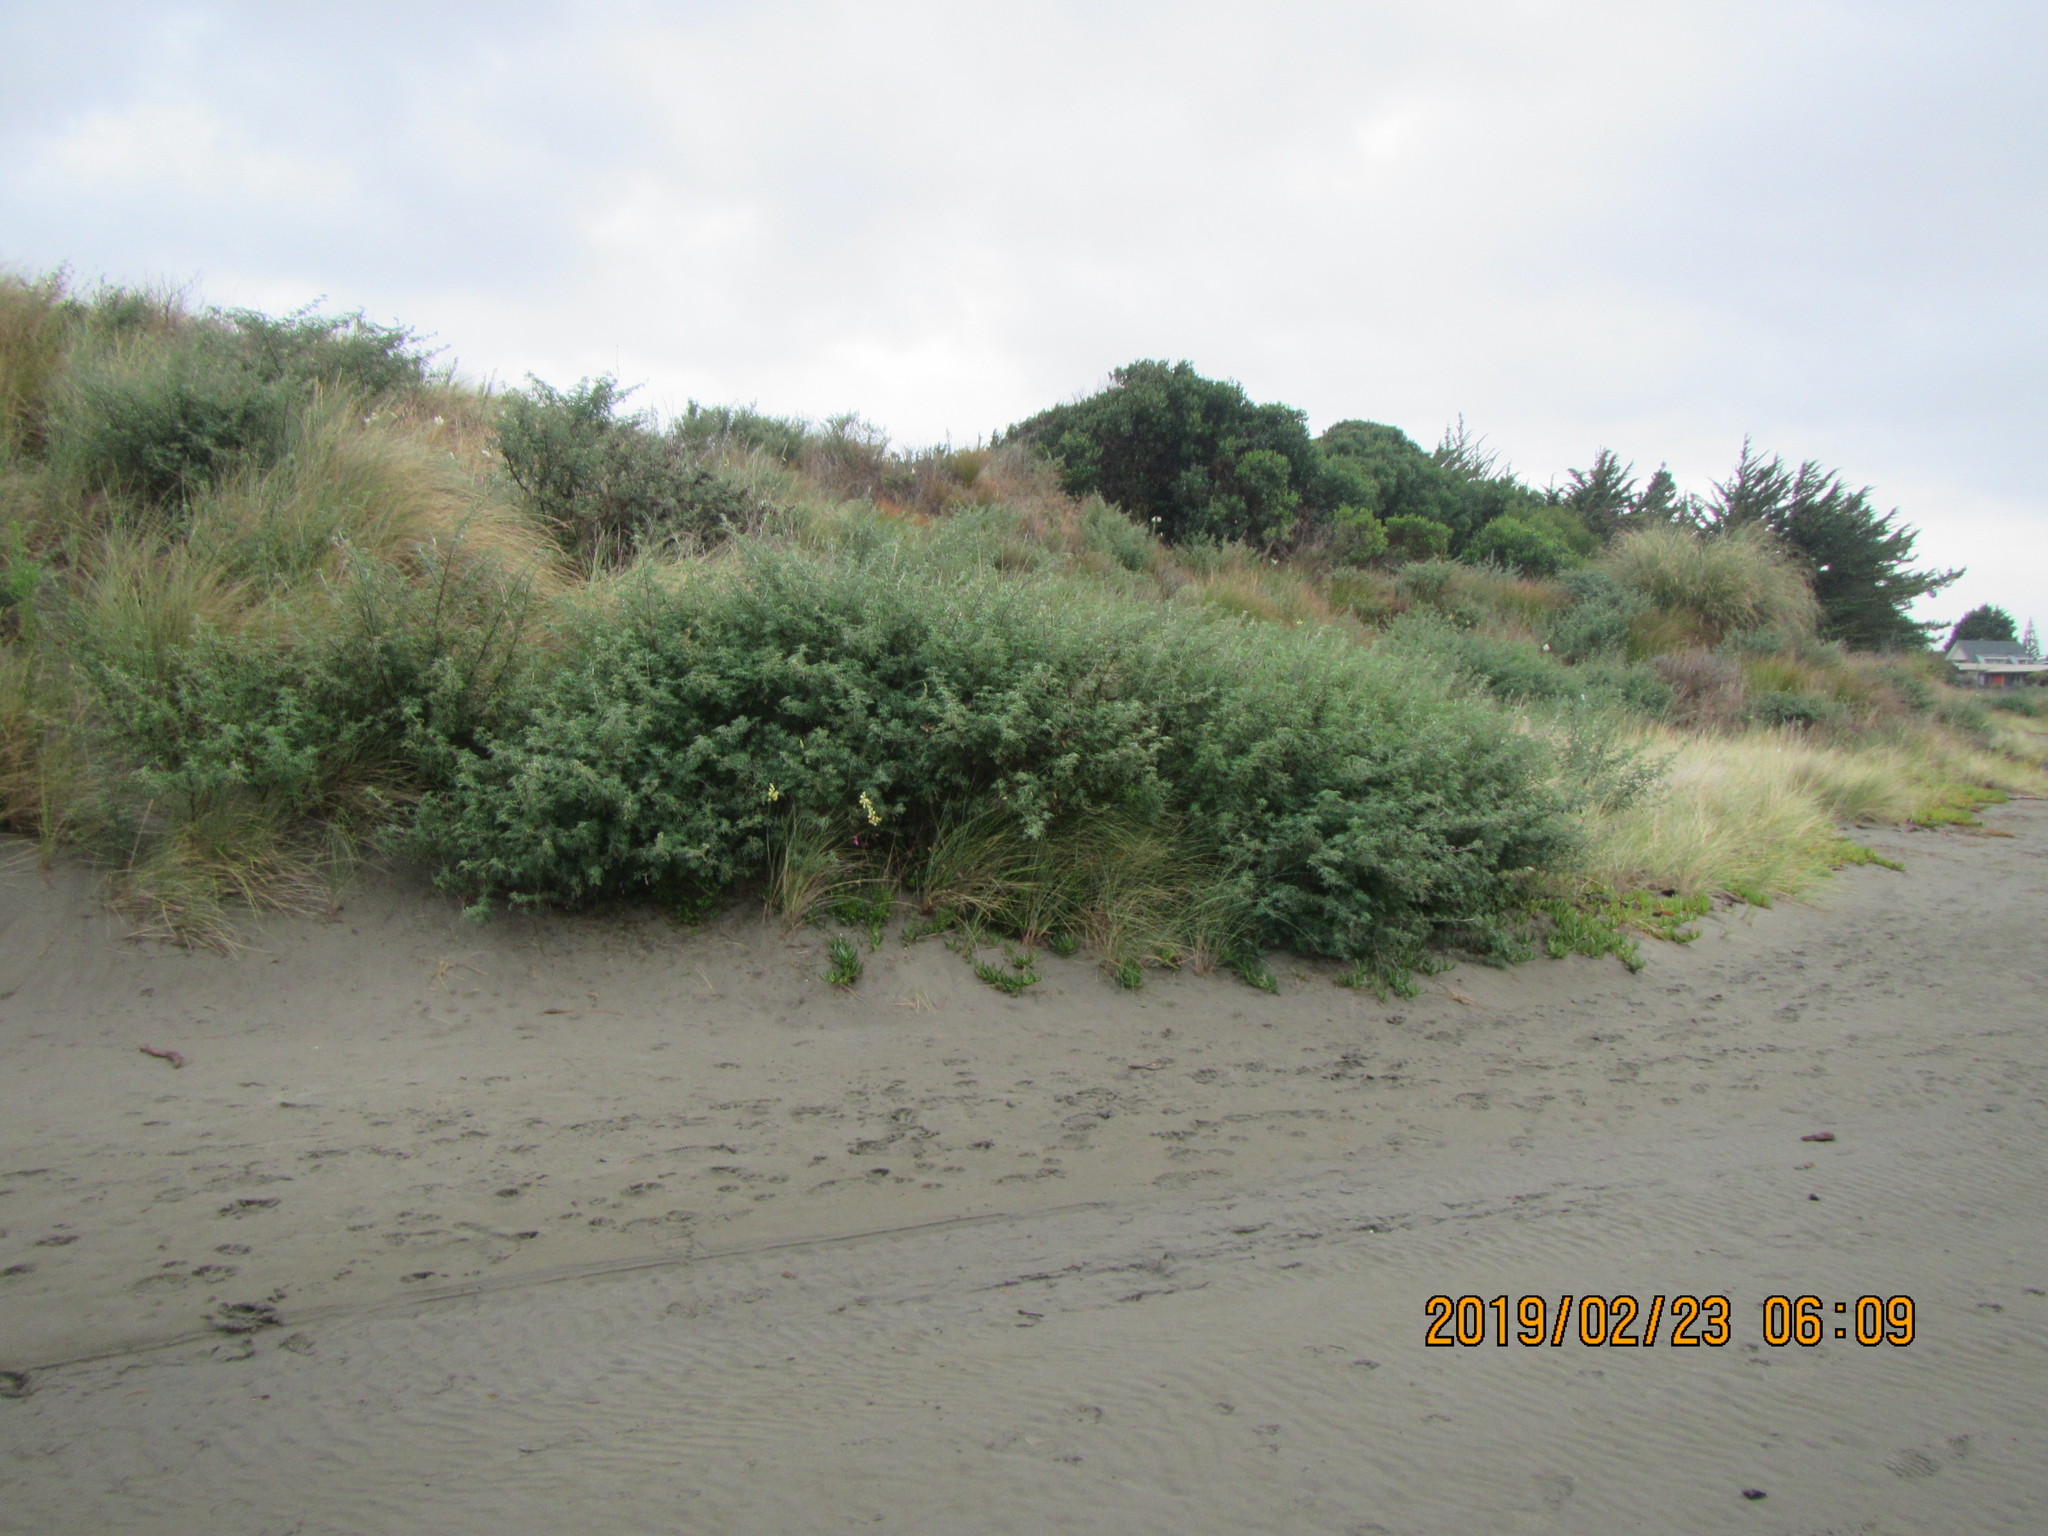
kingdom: Plantae
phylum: Tracheophyta
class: Magnoliopsida
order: Fabales
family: Fabaceae
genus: Lupinus
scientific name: Lupinus arboreus
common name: Yellow bush lupine
